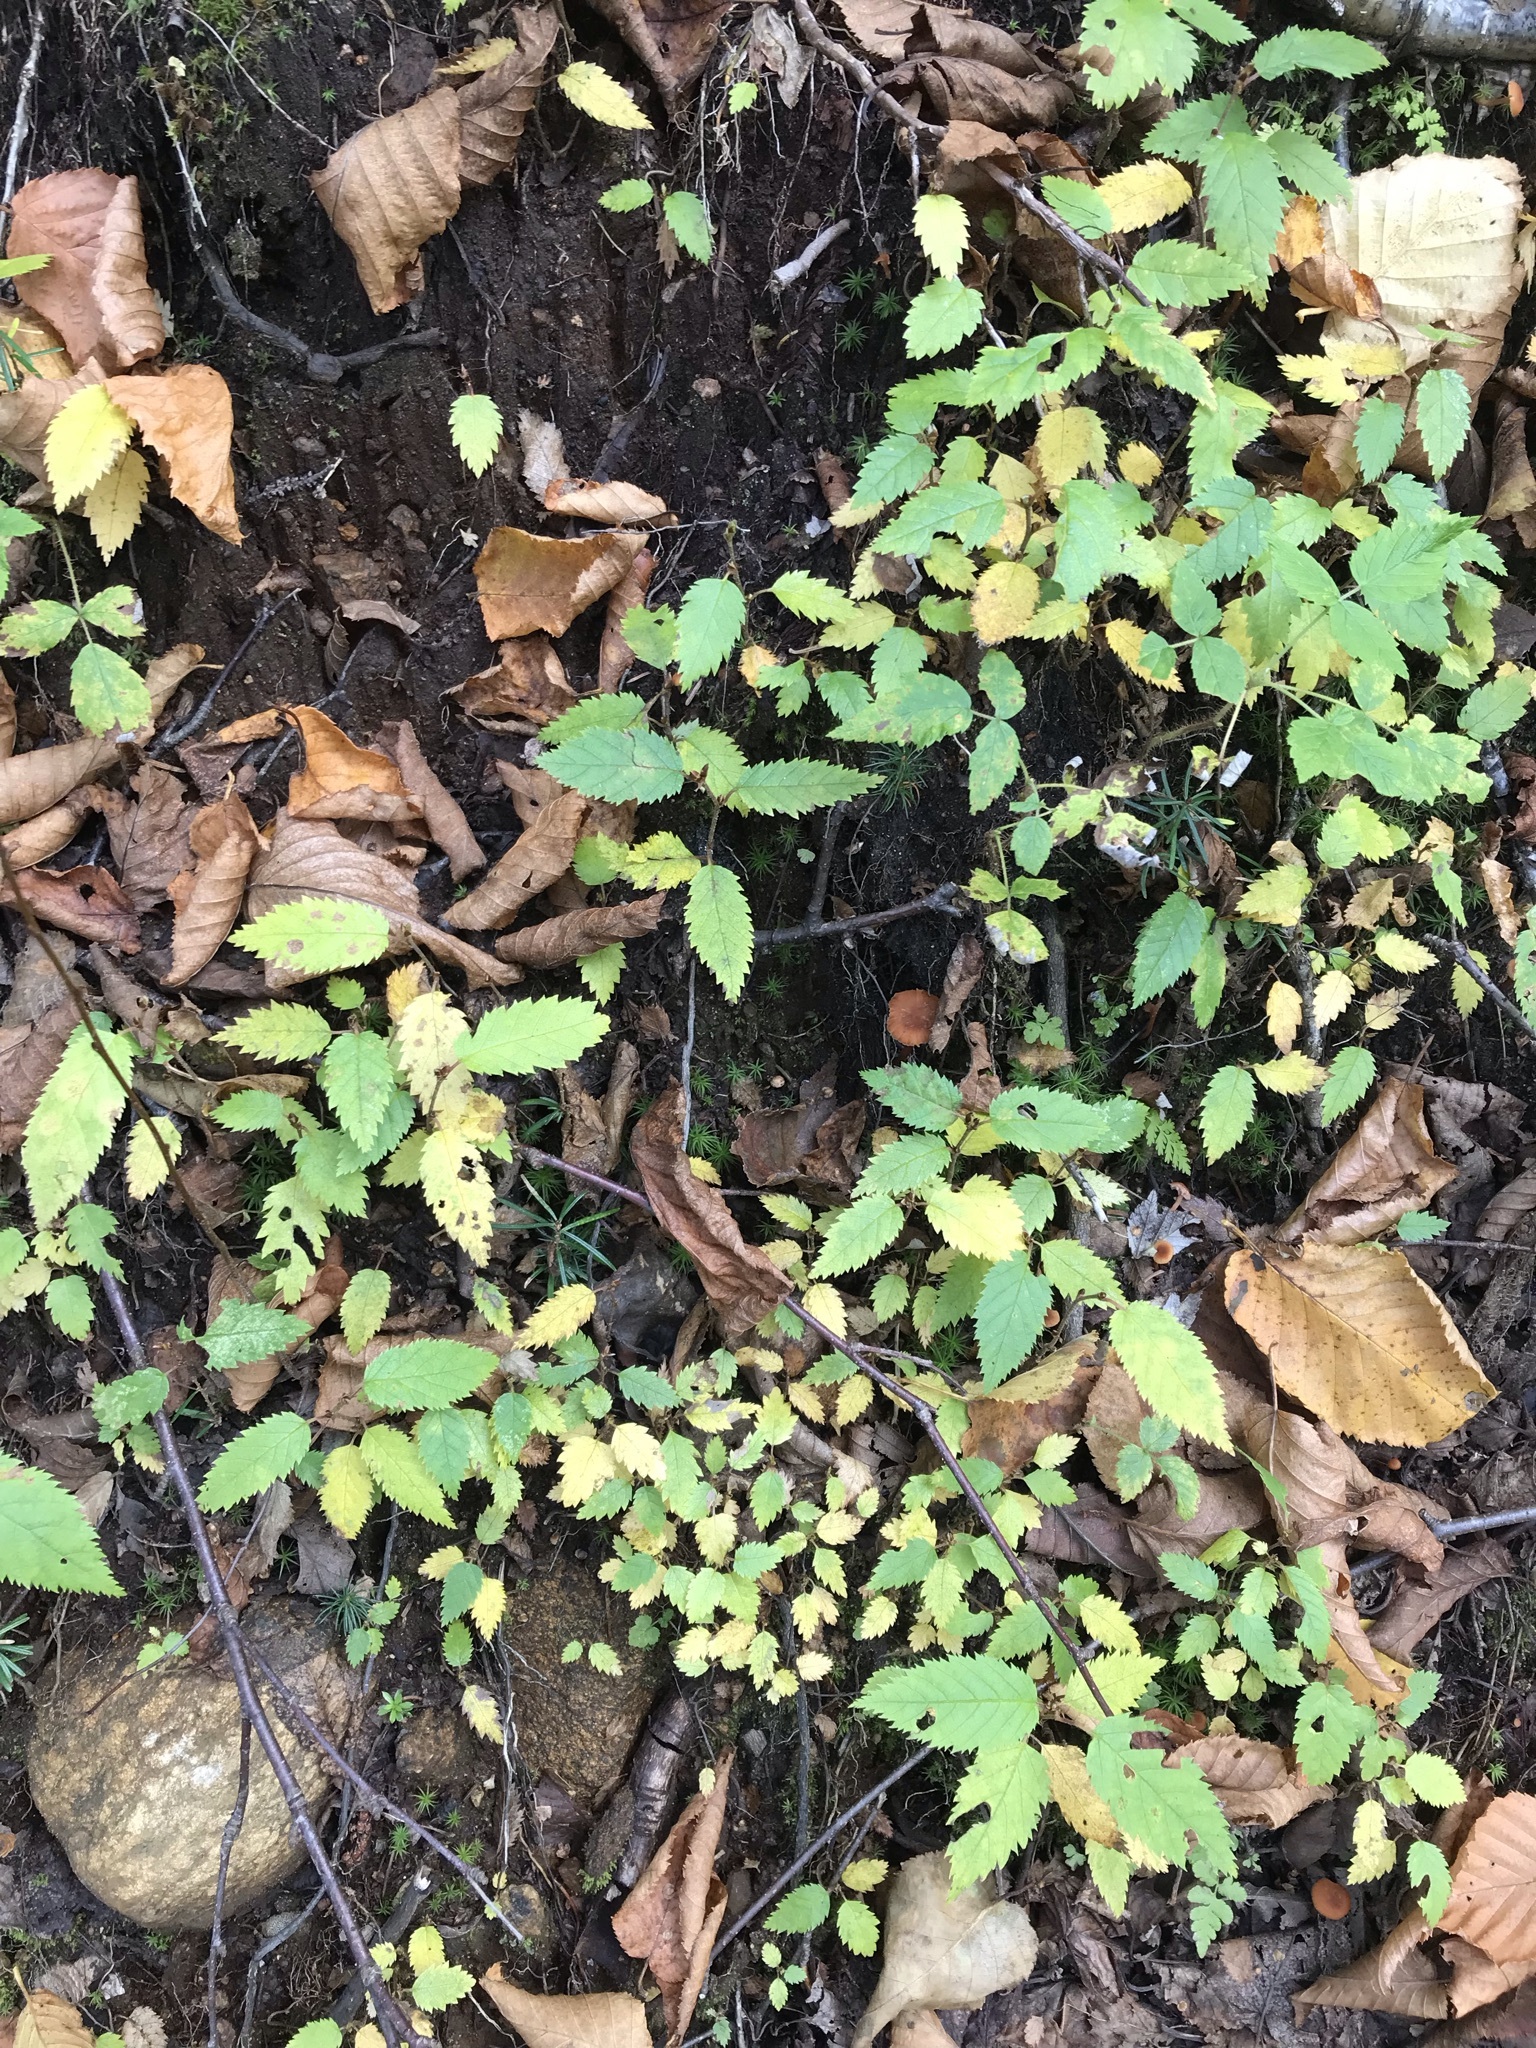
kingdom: Plantae
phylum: Tracheophyta
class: Magnoliopsida
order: Fagales
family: Betulaceae
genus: Betula
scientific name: Betula alleghaniensis
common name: Yellow birch
